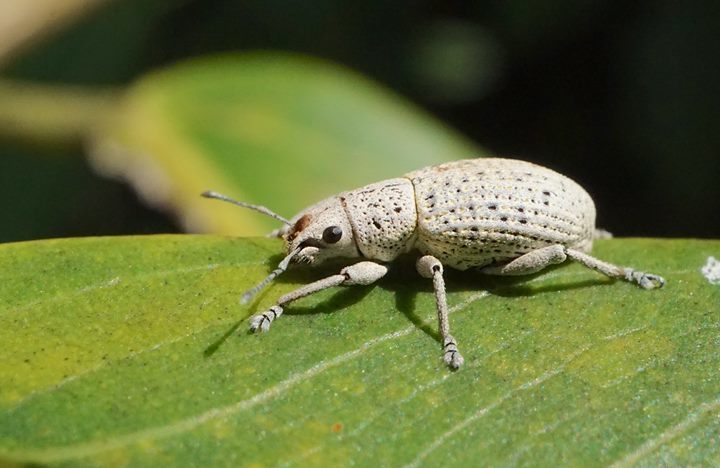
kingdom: Animalia
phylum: Arthropoda
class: Insecta
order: Coleoptera
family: Curculionidae
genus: Artipus
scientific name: Artipus floridanus
